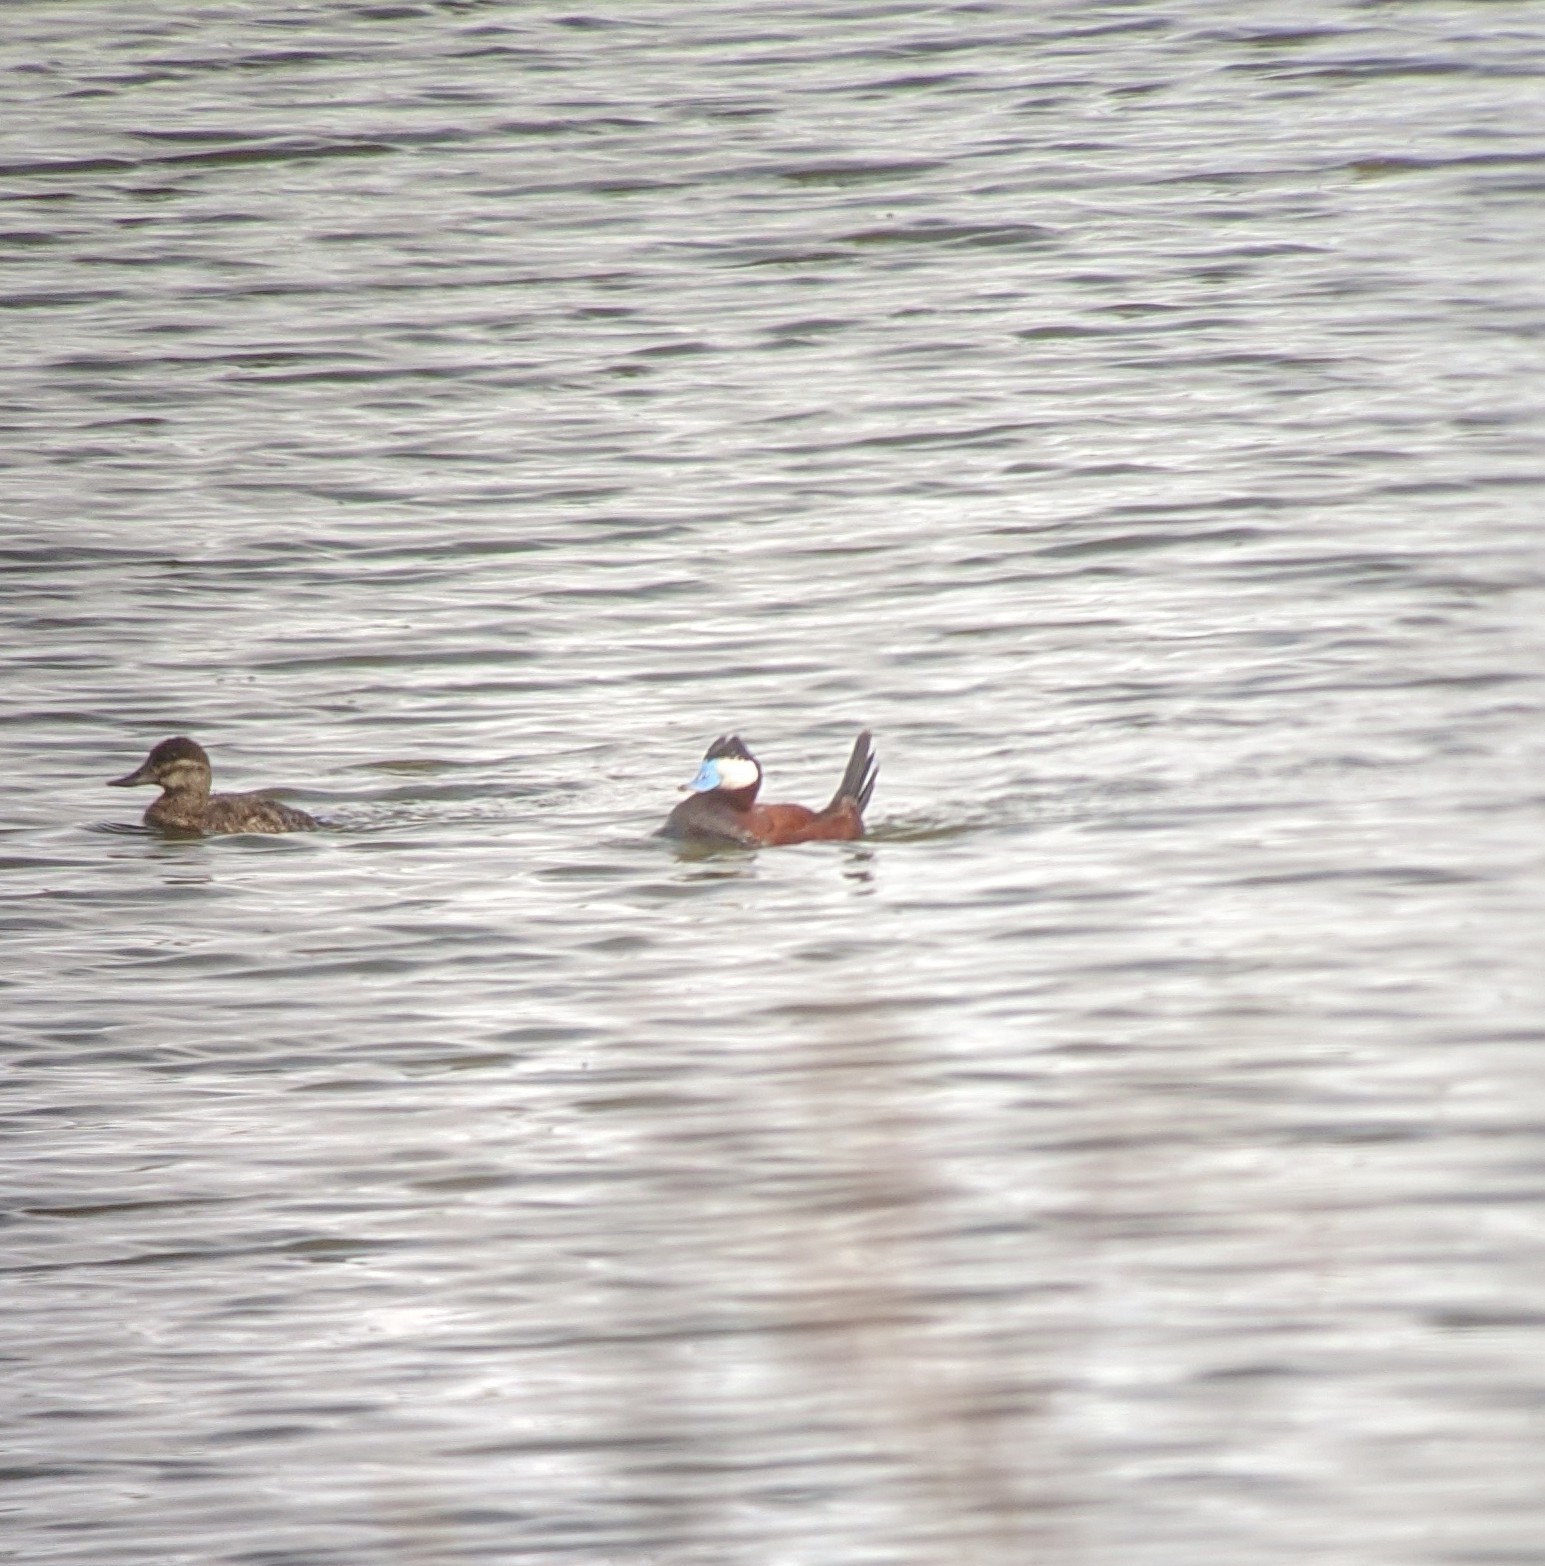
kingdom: Animalia
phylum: Chordata
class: Aves
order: Anseriformes
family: Anatidae
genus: Oxyura
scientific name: Oxyura jamaicensis
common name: Ruddy duck
